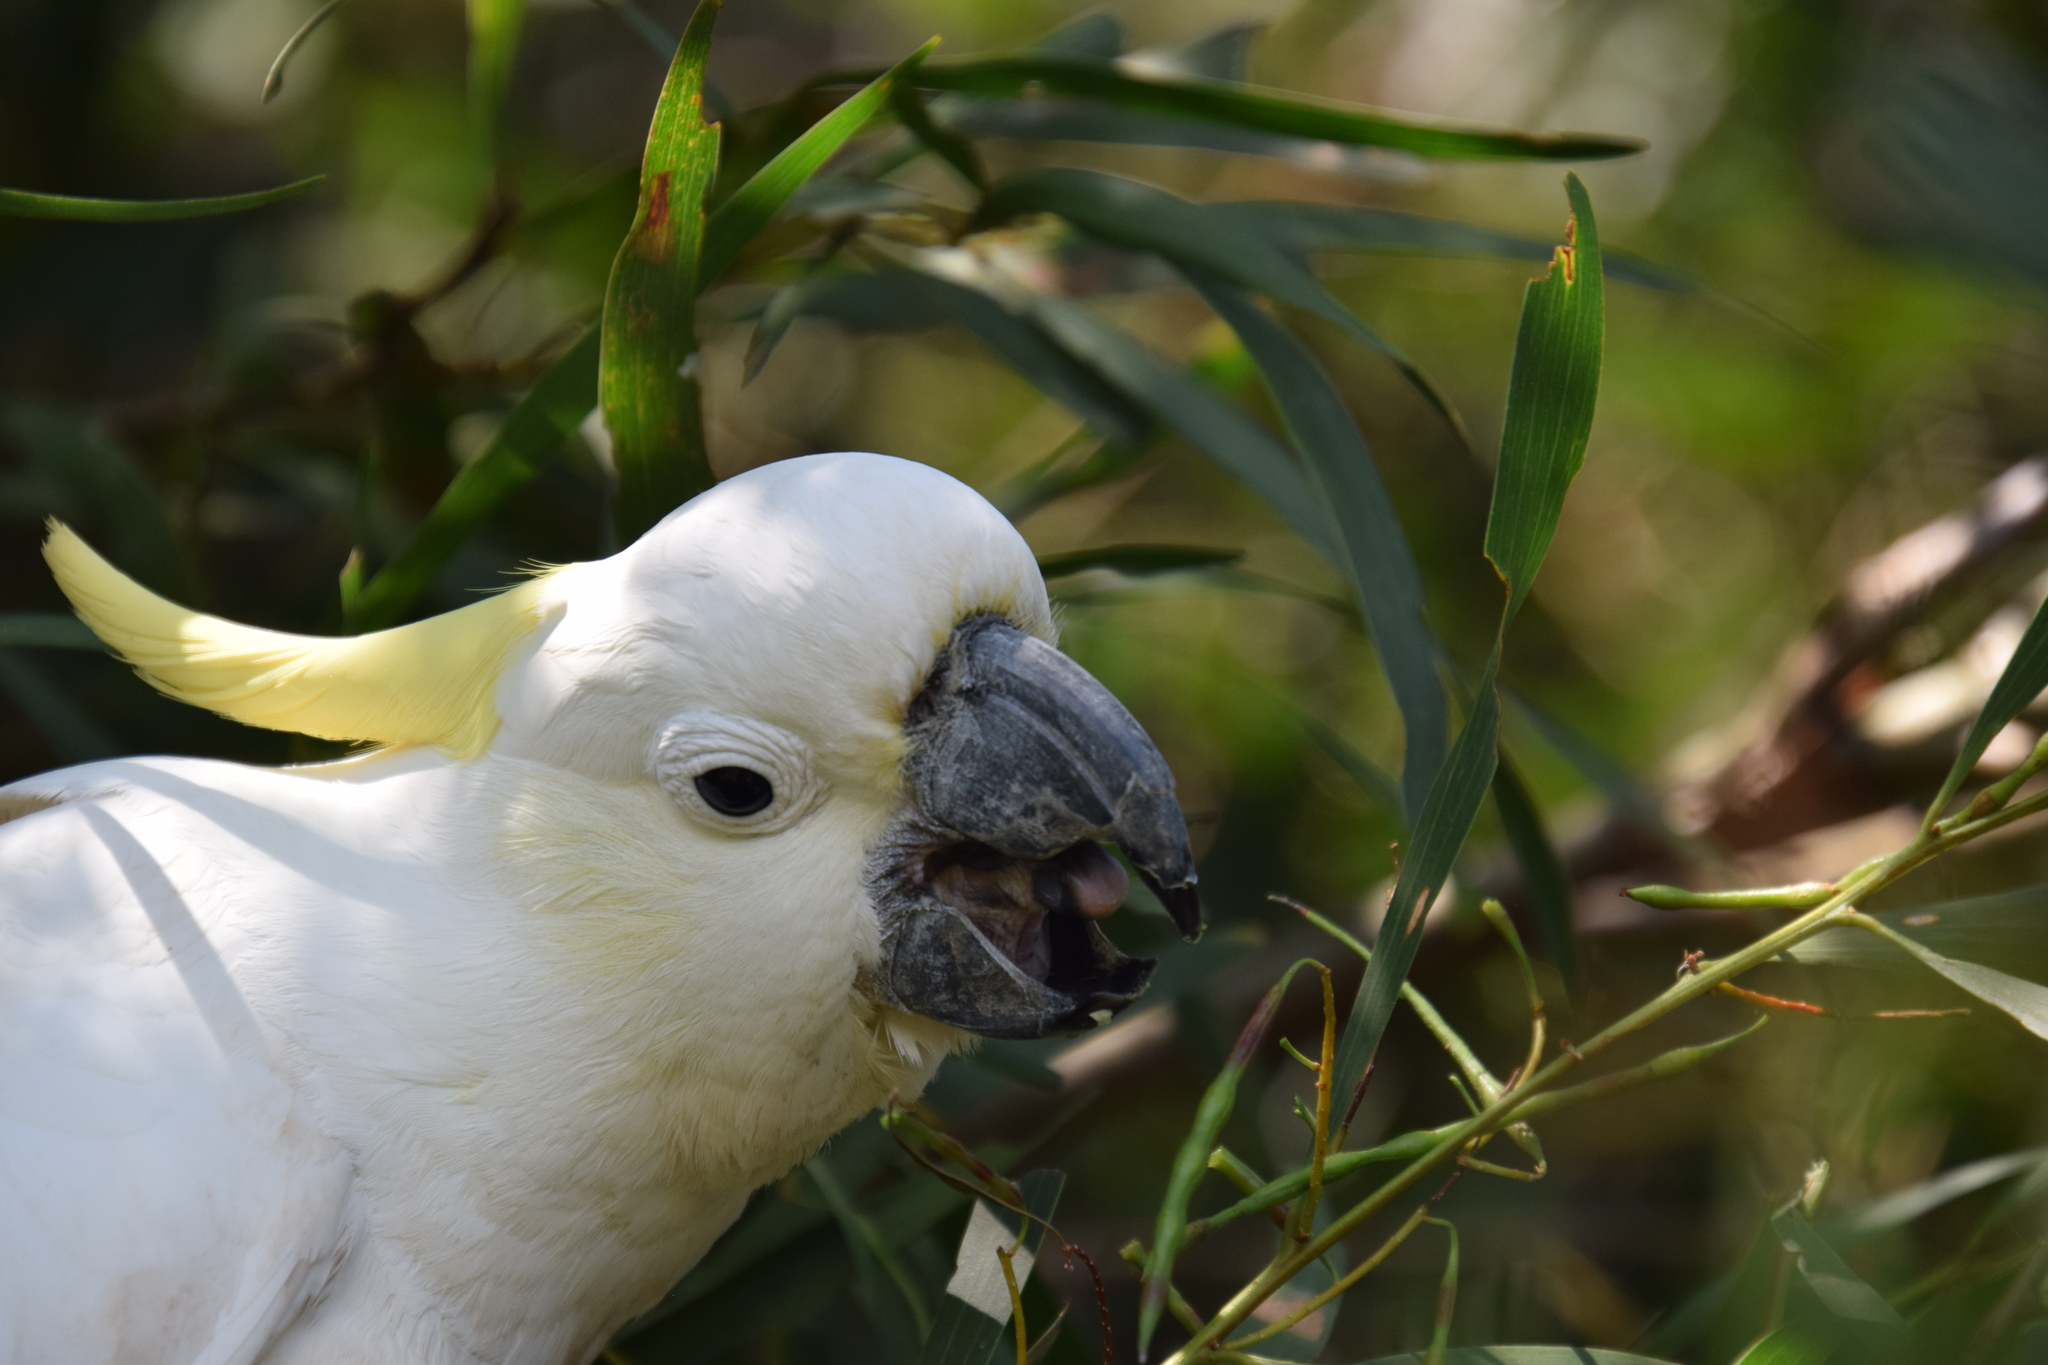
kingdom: Animalia
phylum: Chordata
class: Aves
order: Psittaciformes
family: Psittacidae
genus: Cacatua
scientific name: Cacatua galerita
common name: Sulphur-crested cockatoo
